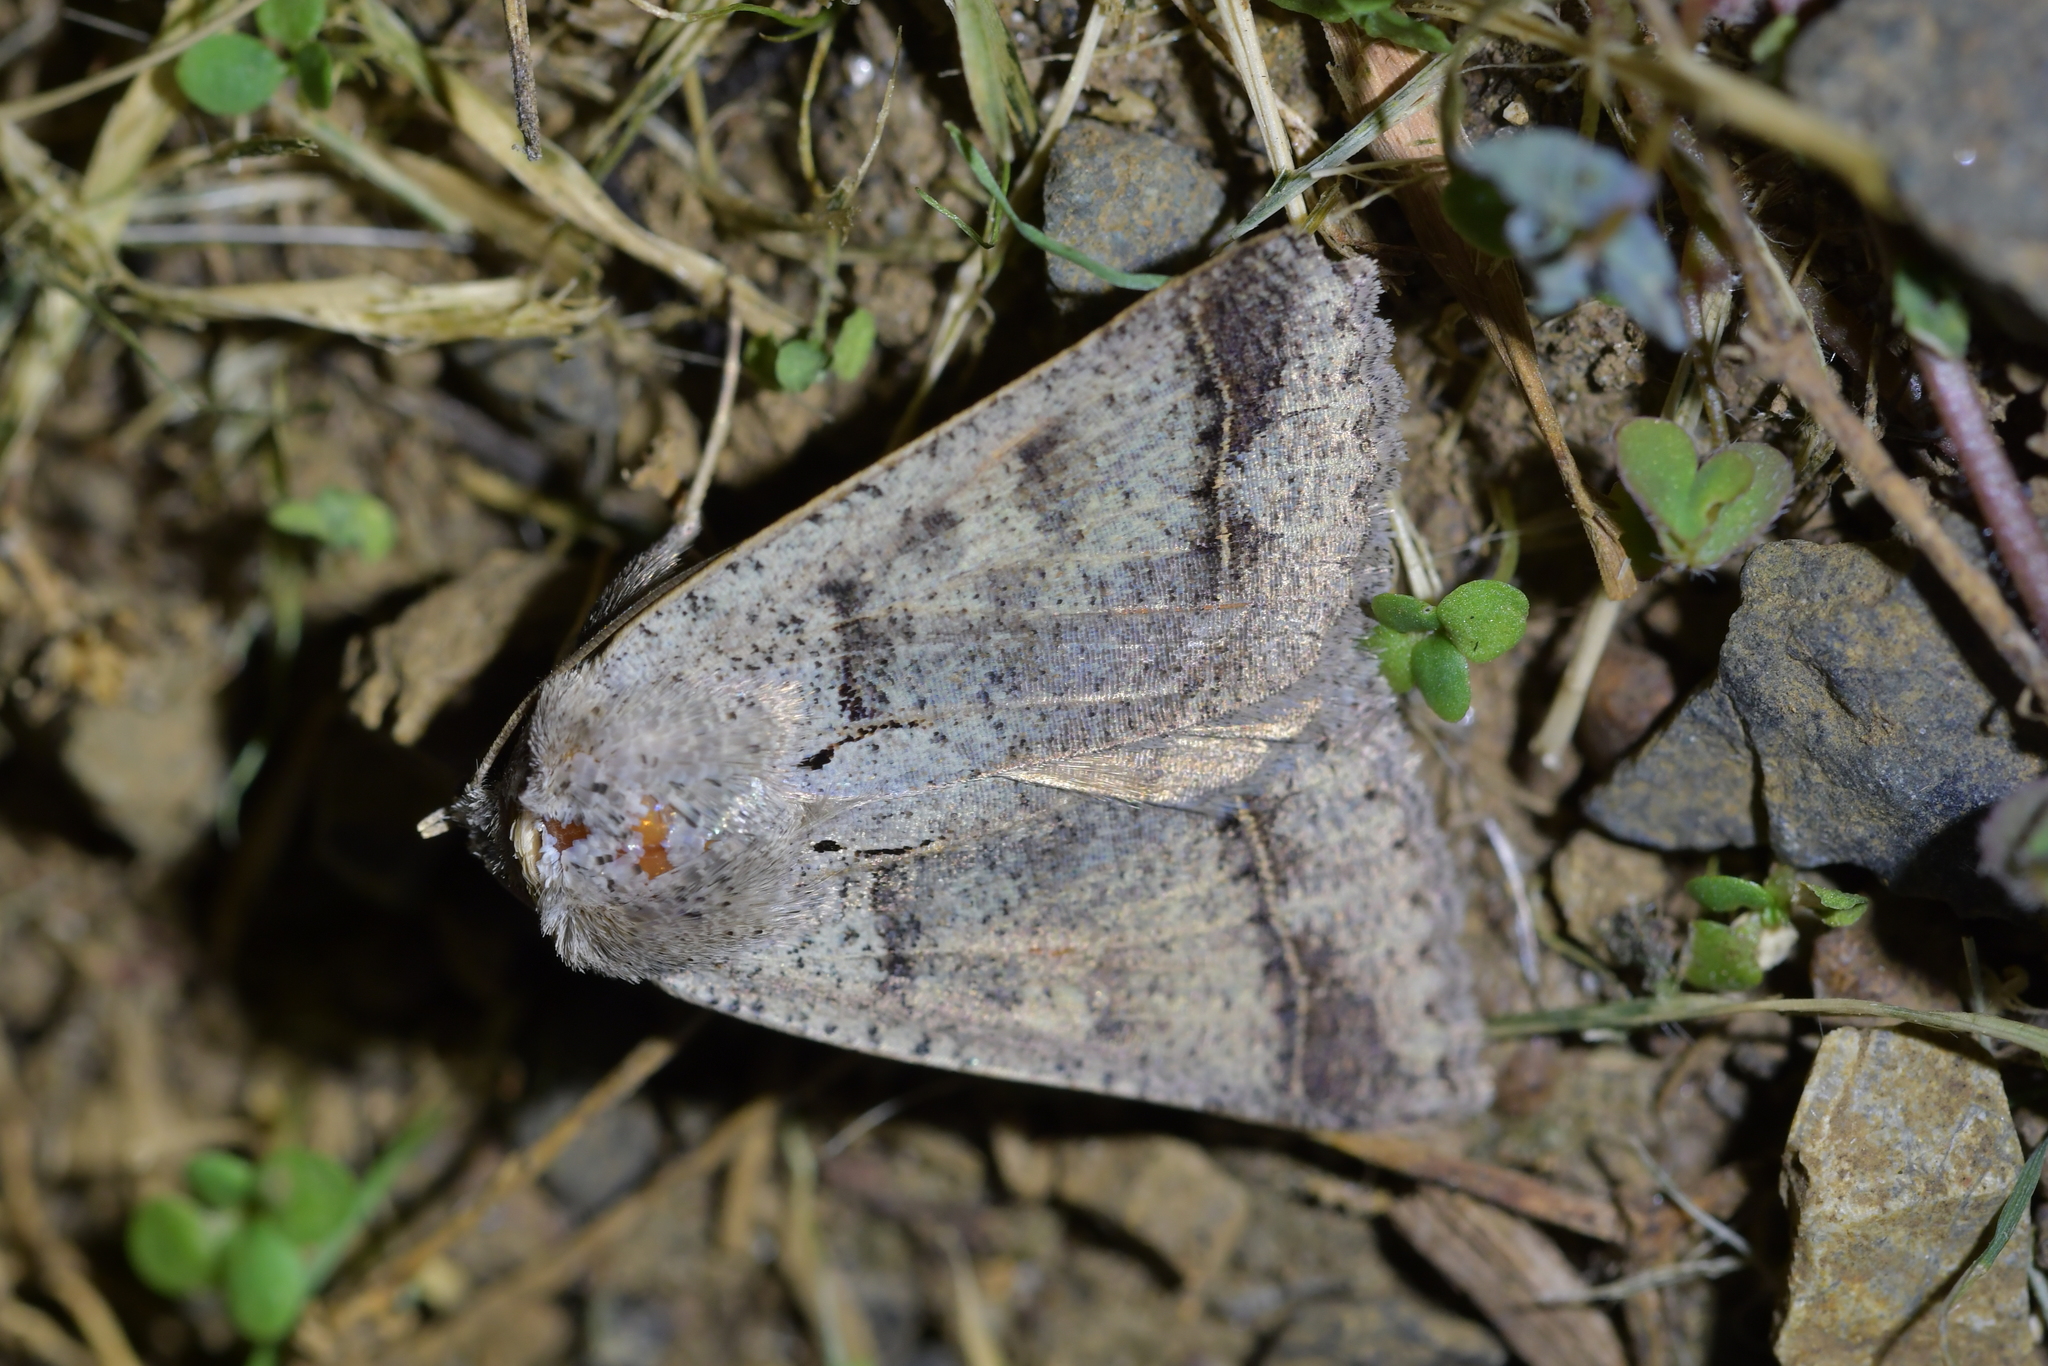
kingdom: Animalia
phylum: Arthropoda
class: Insecta
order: Lepidoptera
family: Erebidae
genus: Pantydia
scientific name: Pantydia sparsa
